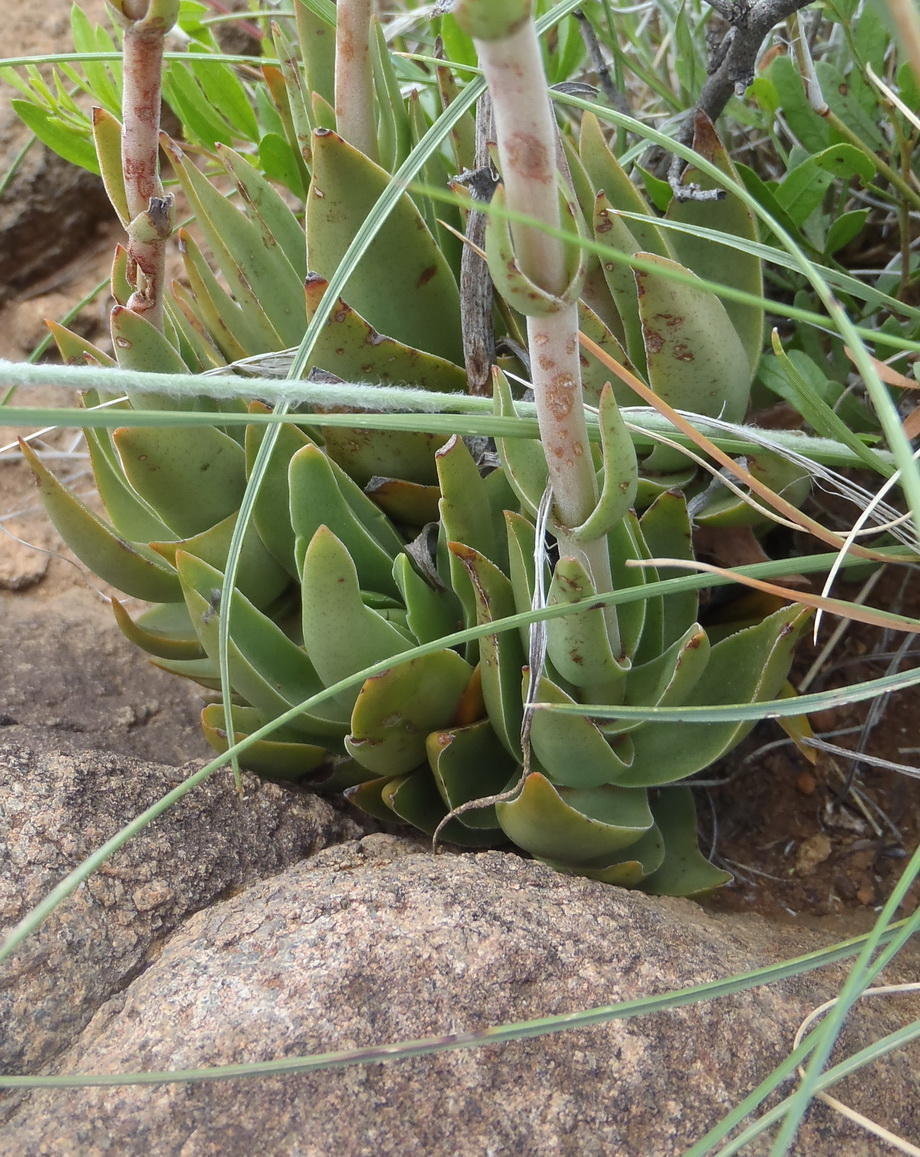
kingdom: Plantae
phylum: Tracheophyta
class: Magnoliopsida
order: Saxifragales
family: Crassulaceae
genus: Crassula
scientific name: Crassula nudicaulis
